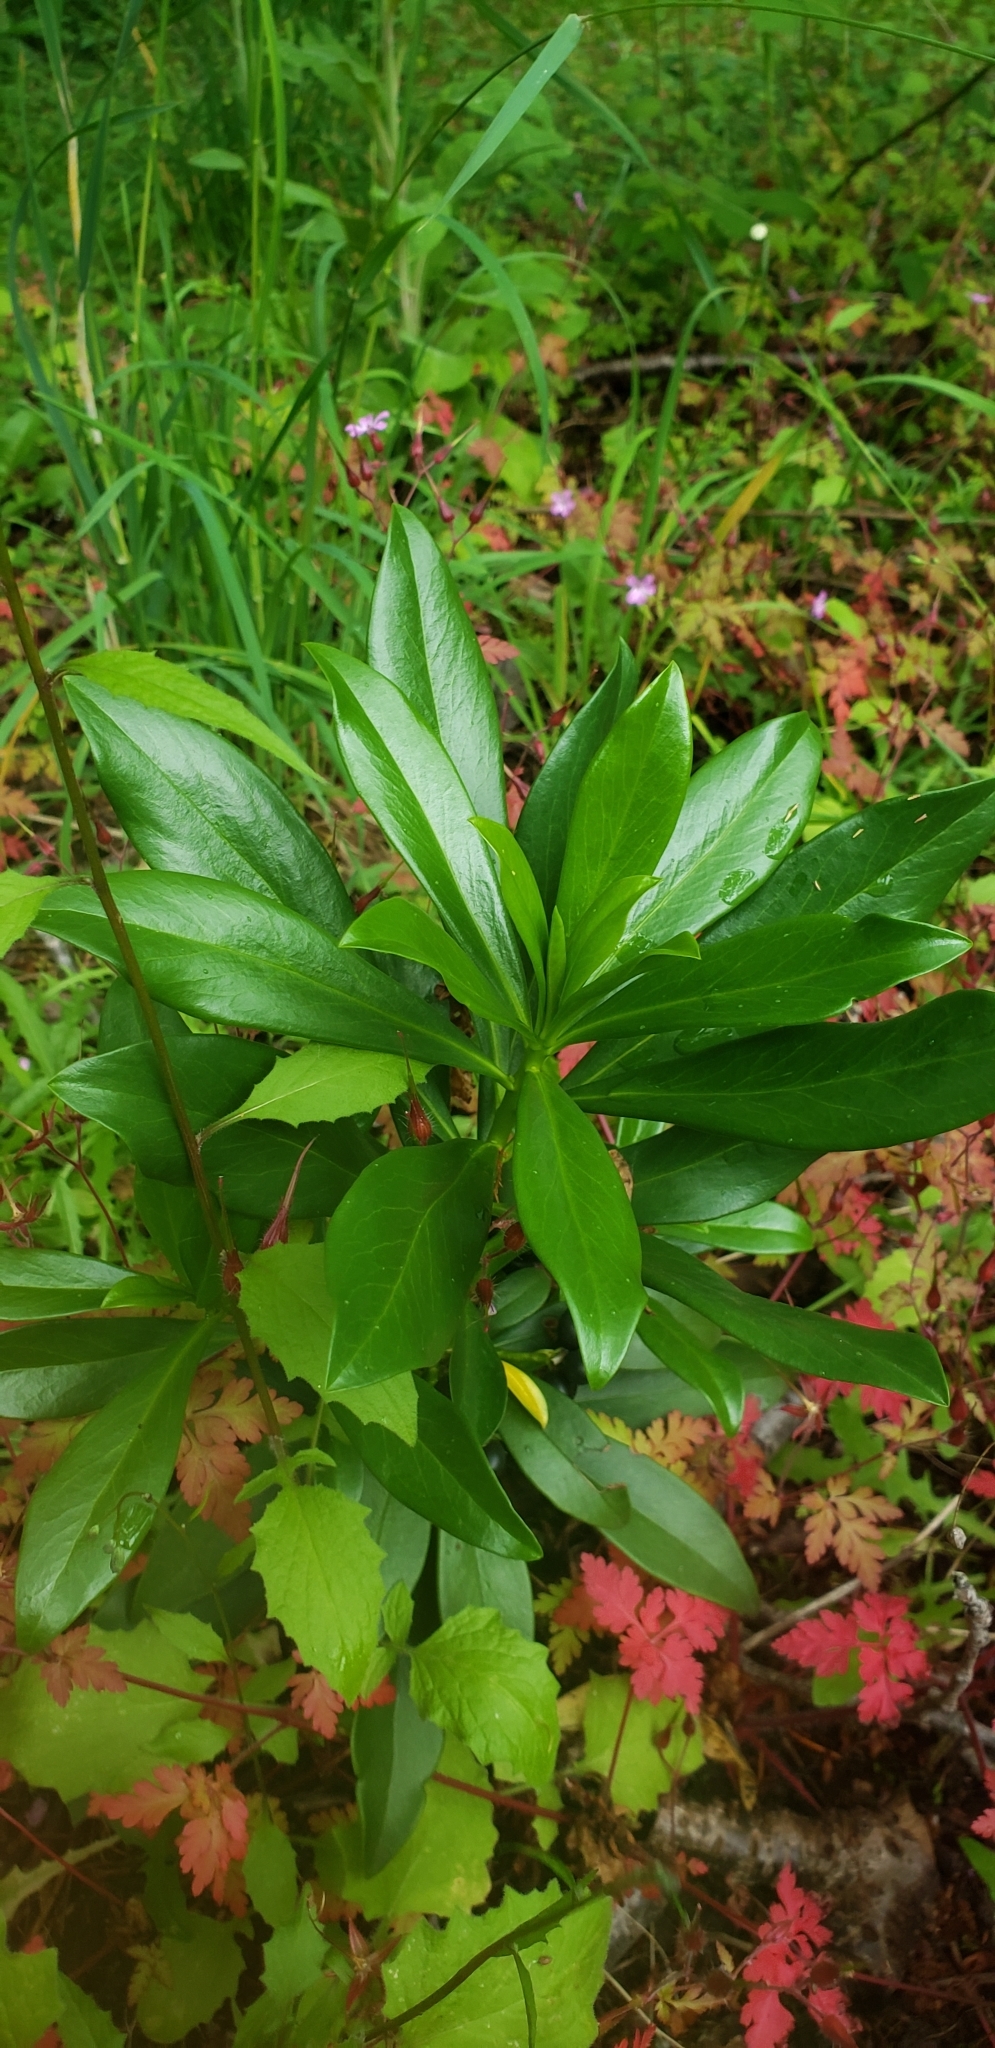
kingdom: Plantae
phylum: Tracheophyta
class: Magnoliopsida
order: Malvales
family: Thymelaeaceae
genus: Daphne
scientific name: Daphne laureola
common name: Spurge-laurel
